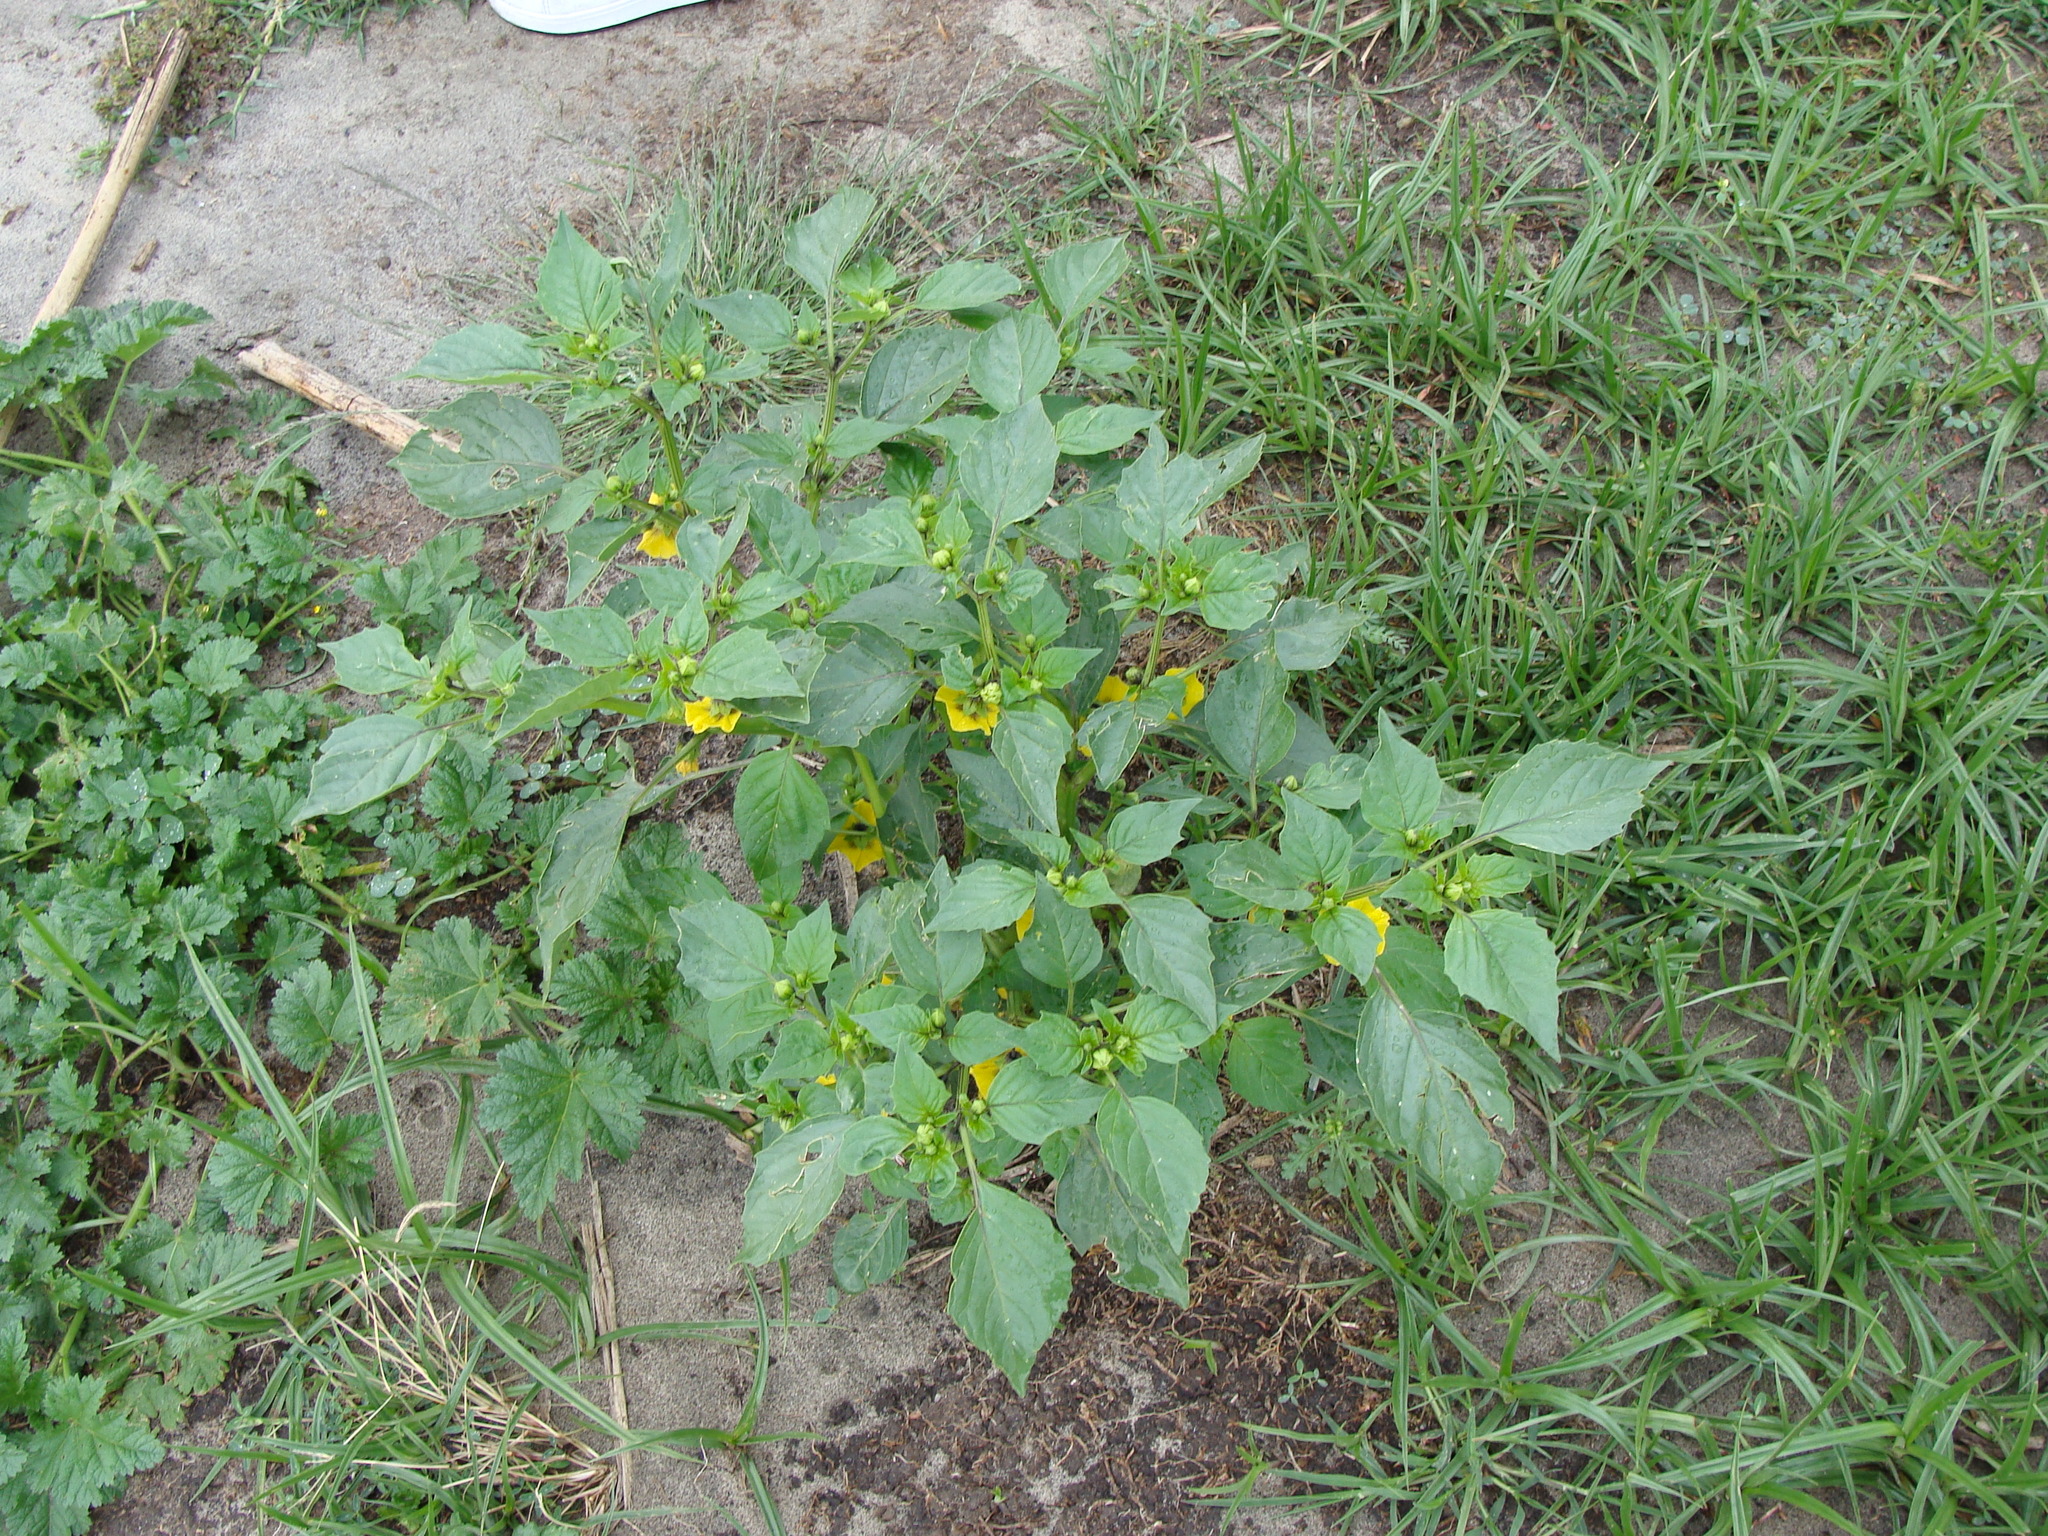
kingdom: Plantae
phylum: Tracheophyta
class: Magnoliopsida
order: Solanales
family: Solanaceae
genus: Physalis
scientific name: Physalis philadelphica
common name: Husk-tomato
